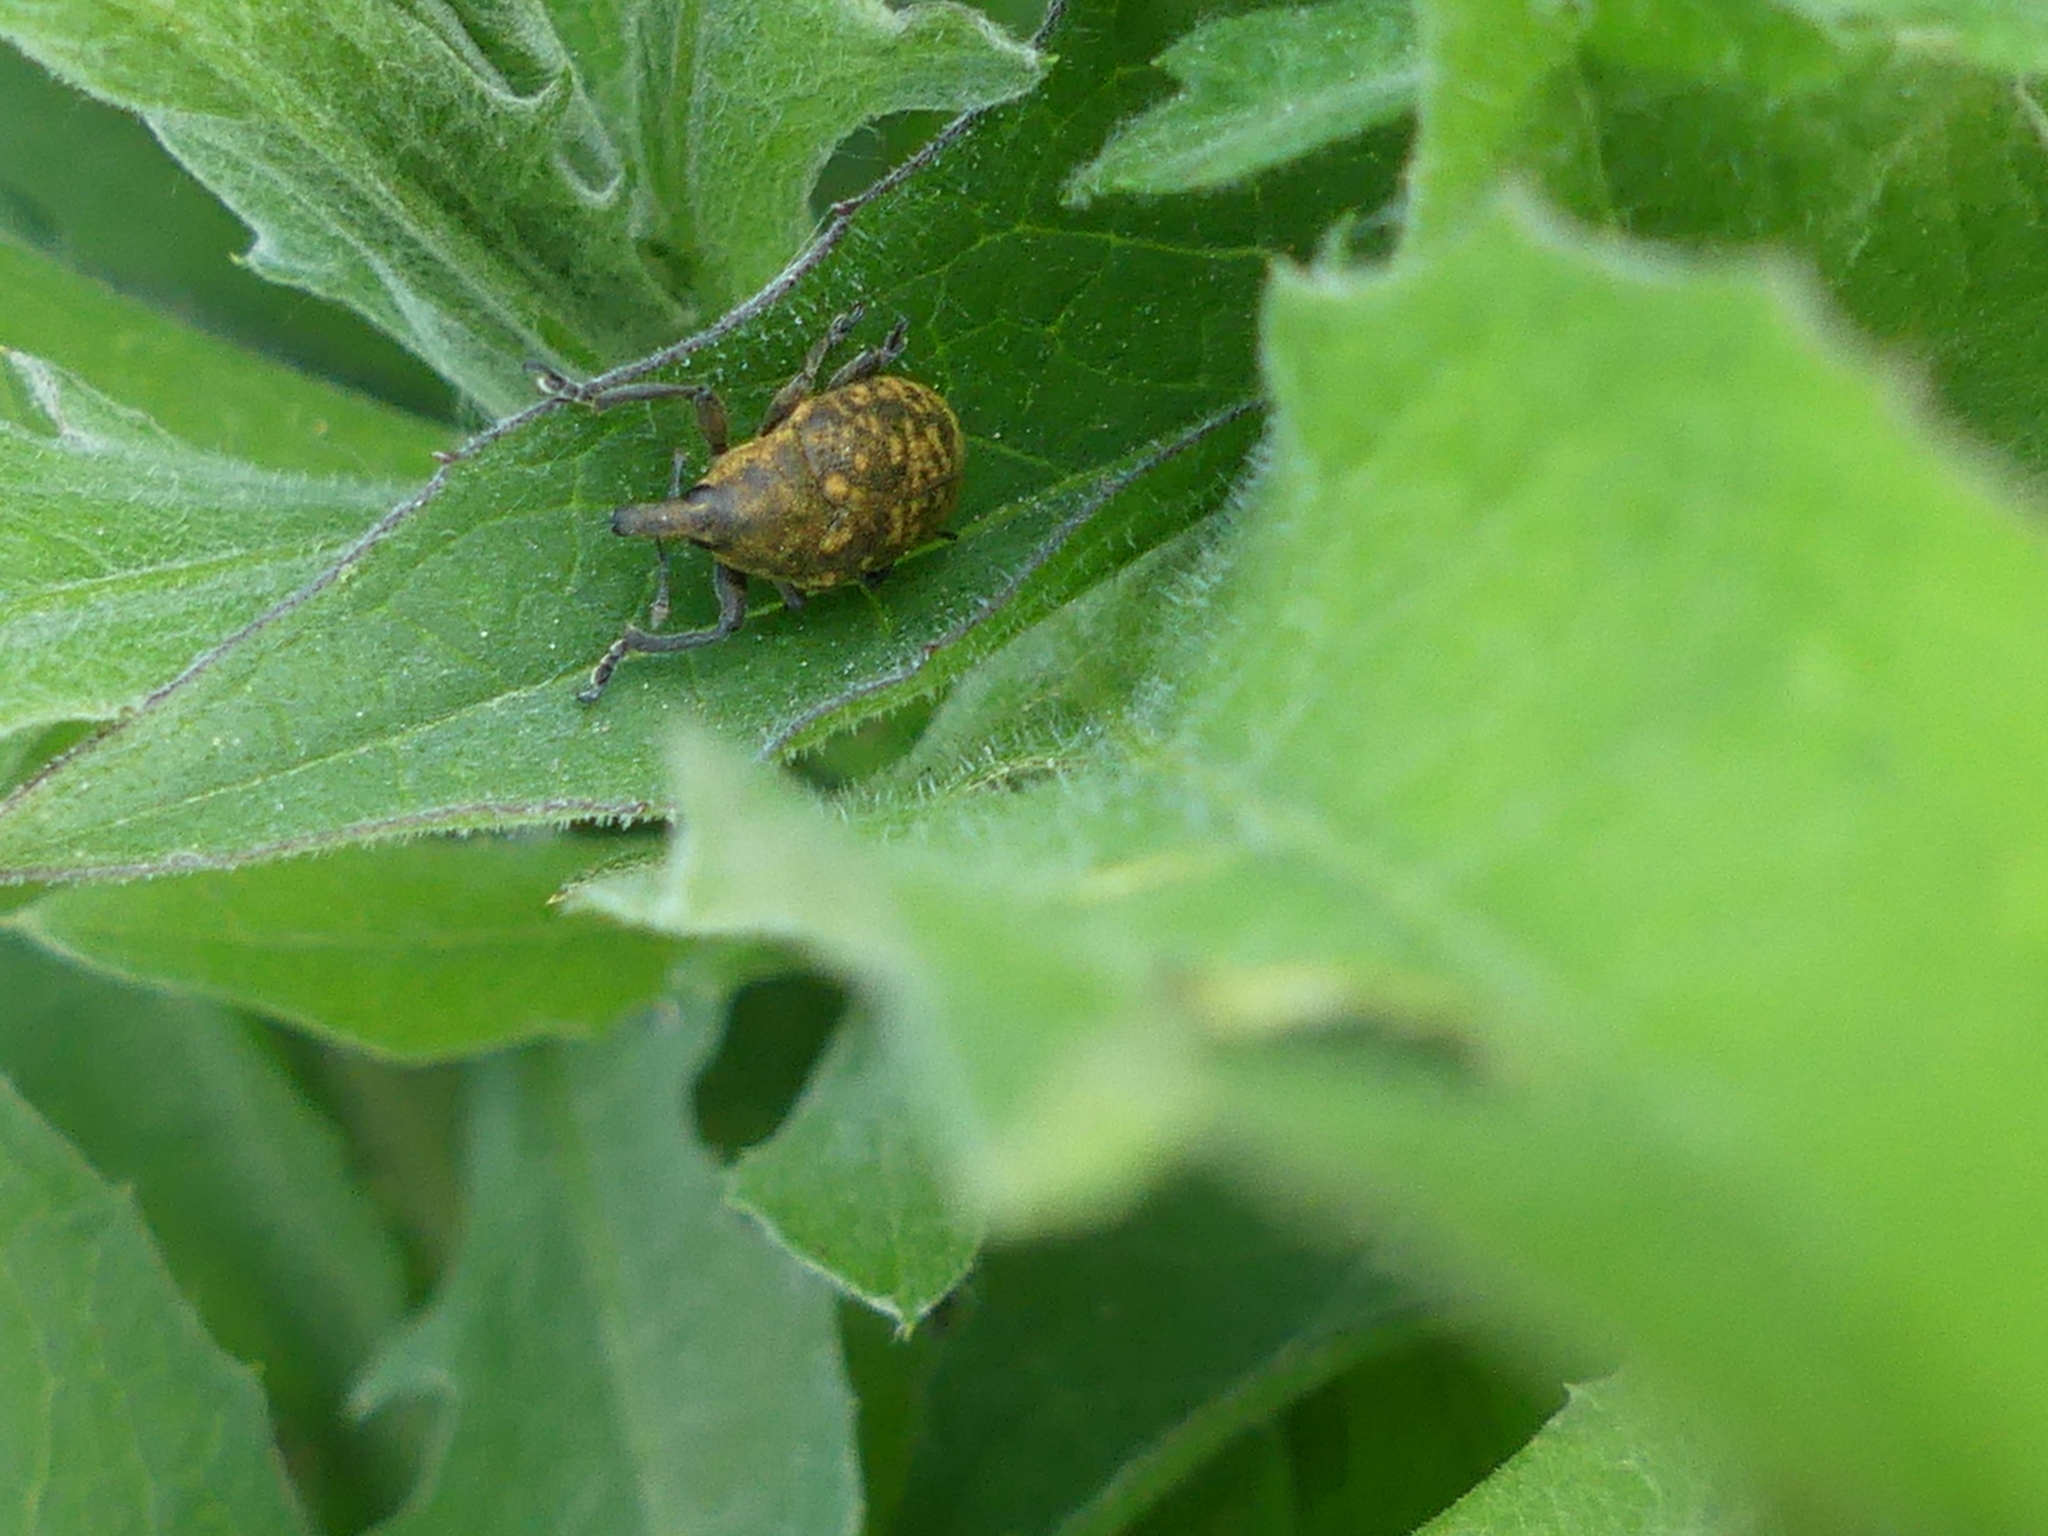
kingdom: Animalia
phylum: Arthropoda
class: Insecta
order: Coleoptera
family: Curculionidae
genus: Larinus
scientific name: Larinus turbinatus
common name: Weevil
